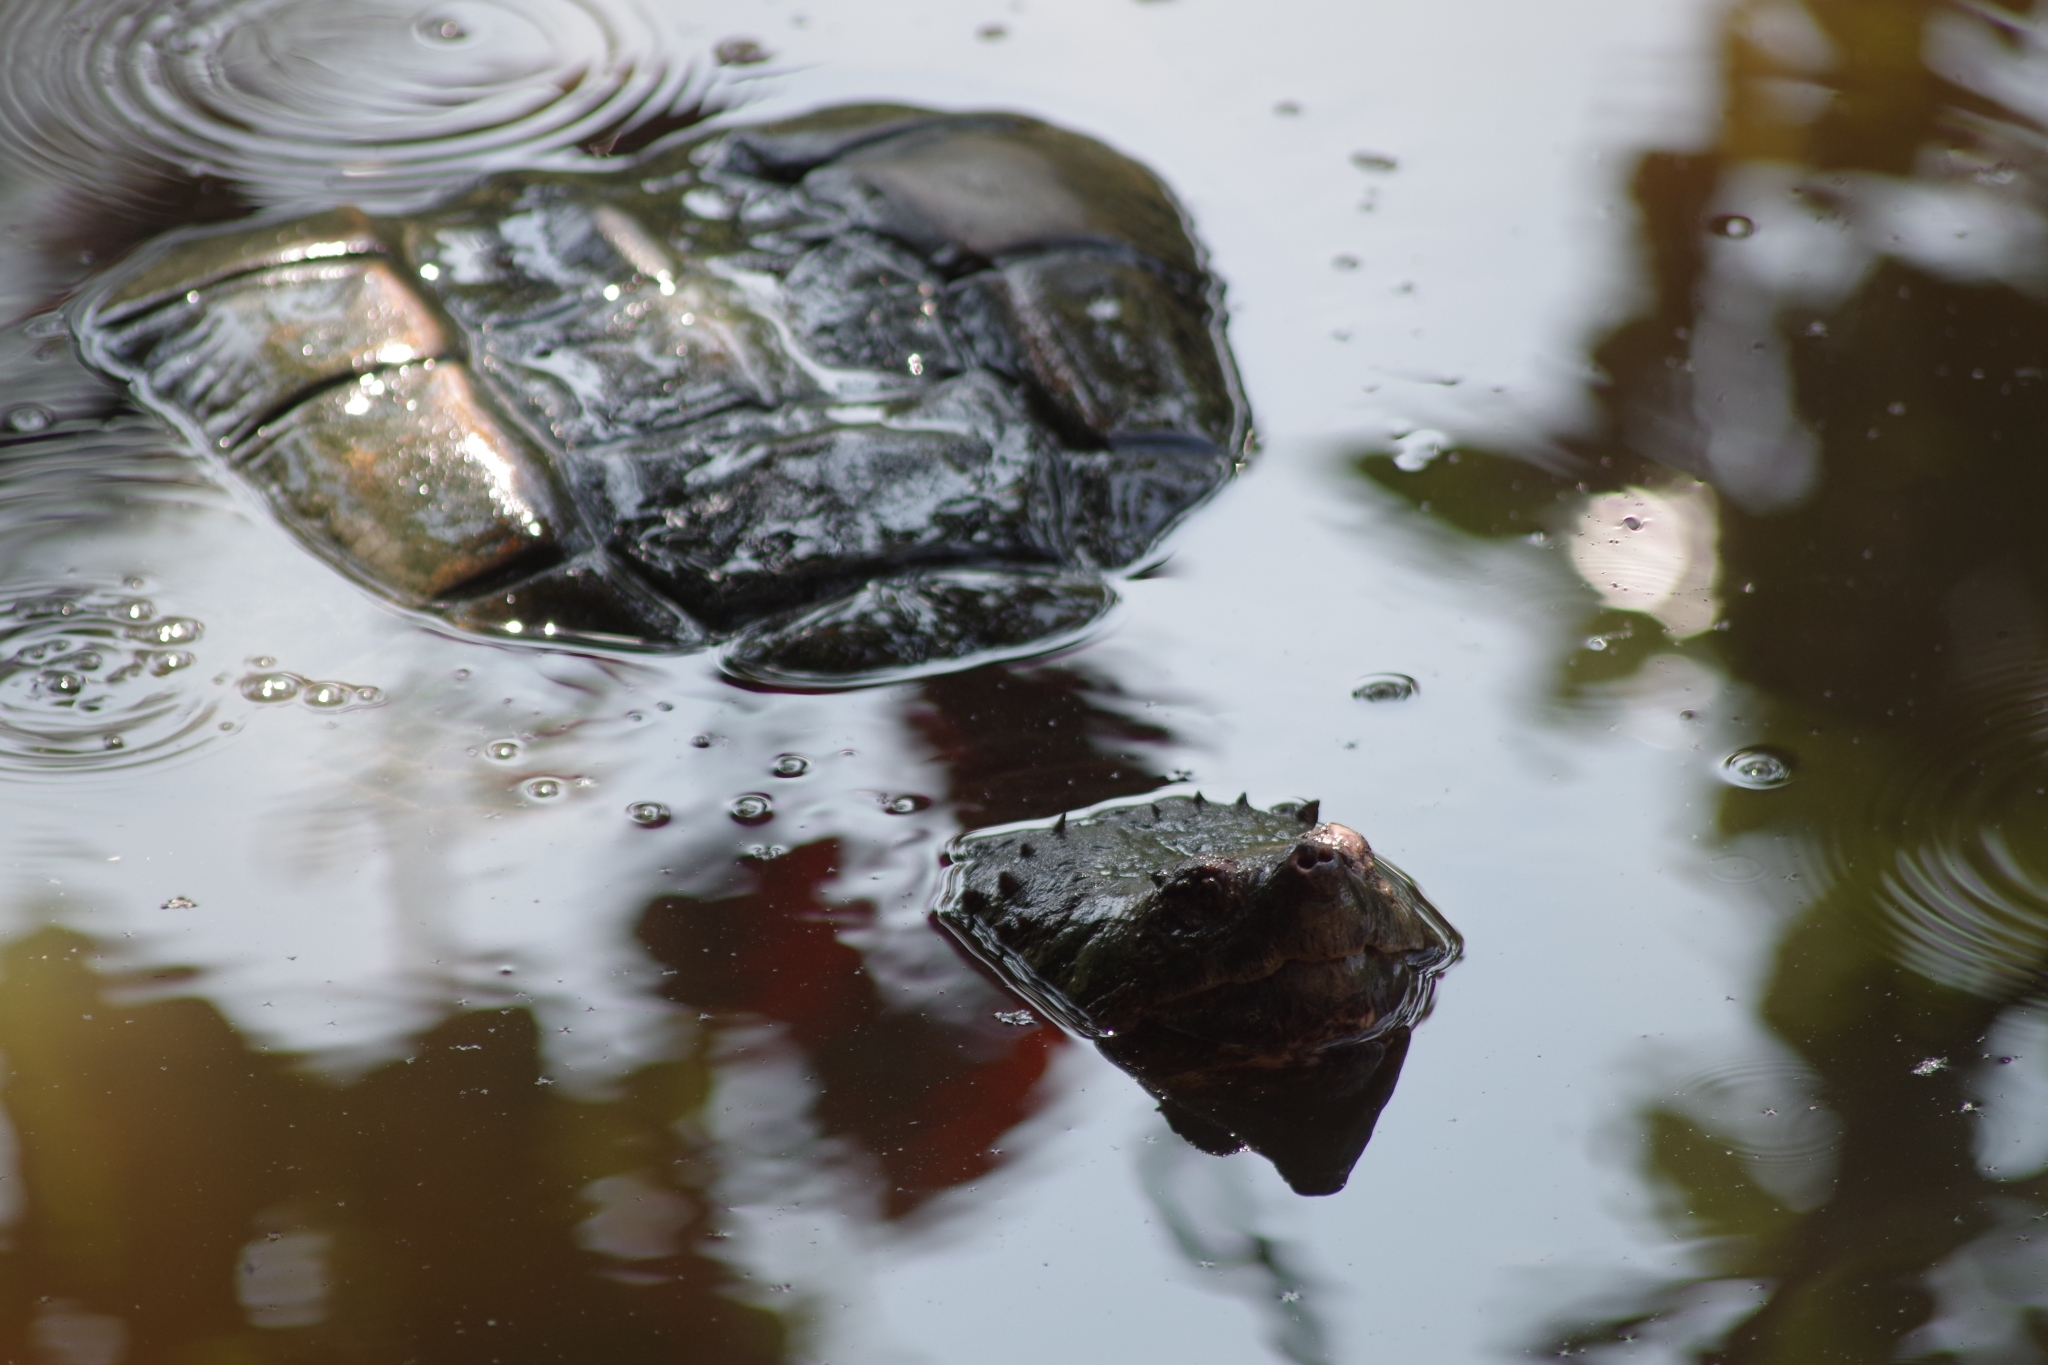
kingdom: Animalia
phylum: Chordata
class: Testudines
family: Chelydridae
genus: Chelydra
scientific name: Chelydra serpentina
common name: Common snapping turtle
